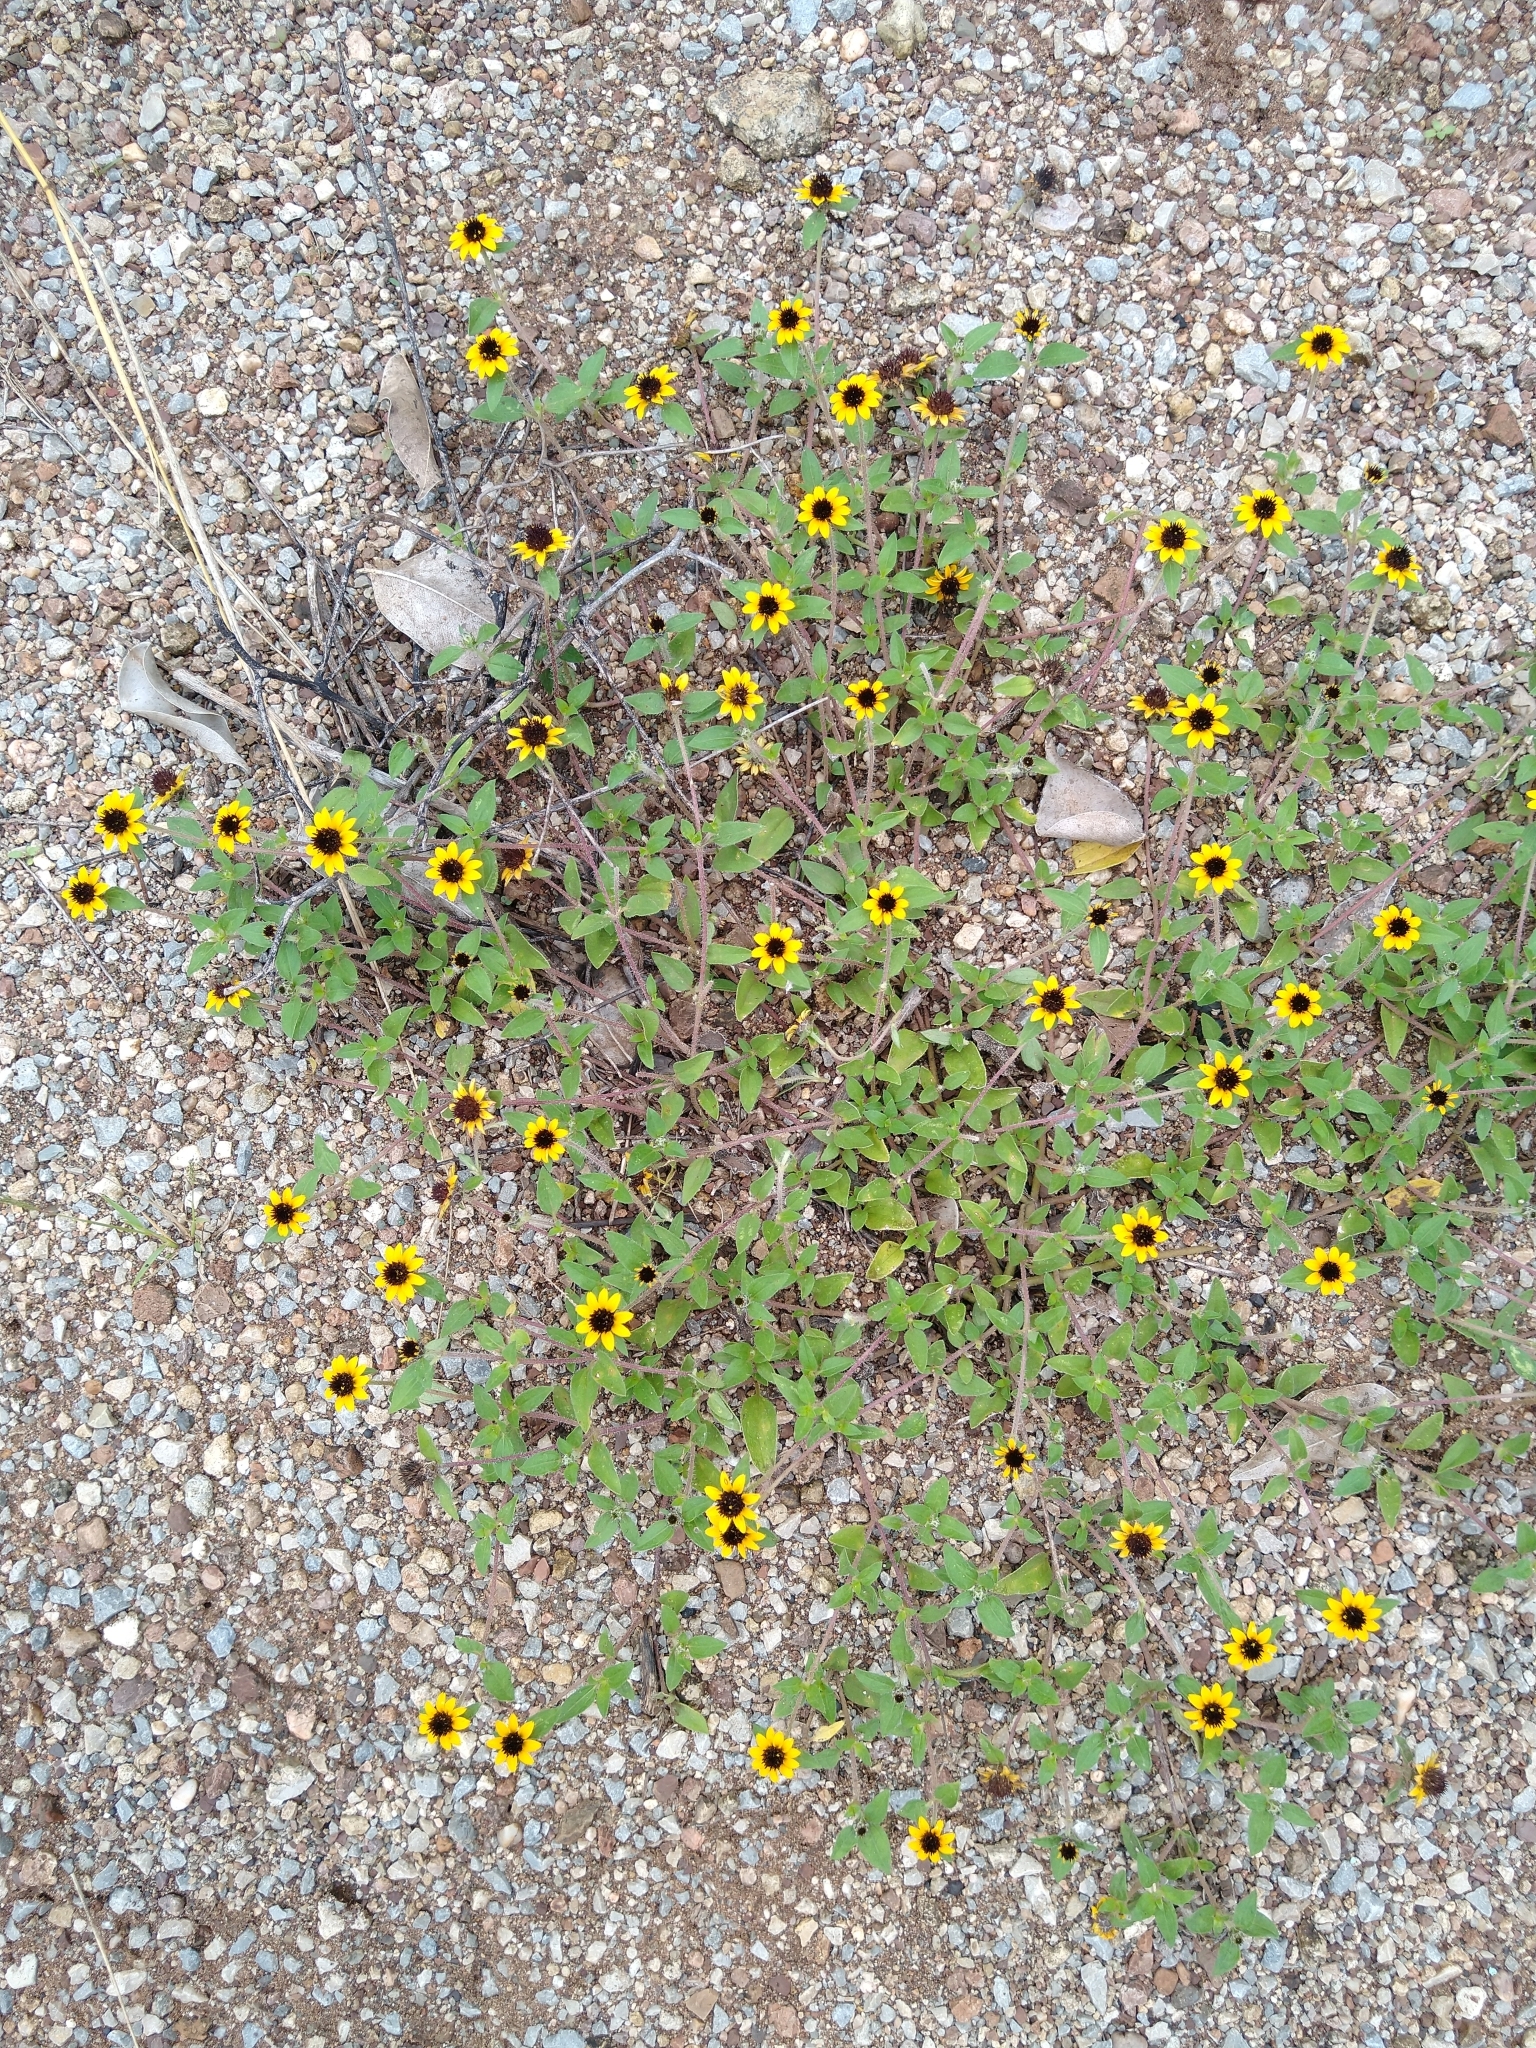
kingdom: Plantae
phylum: Tracheophyta
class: Magnoliopsida
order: Asterales
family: Asteraceae
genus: Sanvitalia
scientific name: Sanvitalia procumbens
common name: Mexican creeping zinnia
